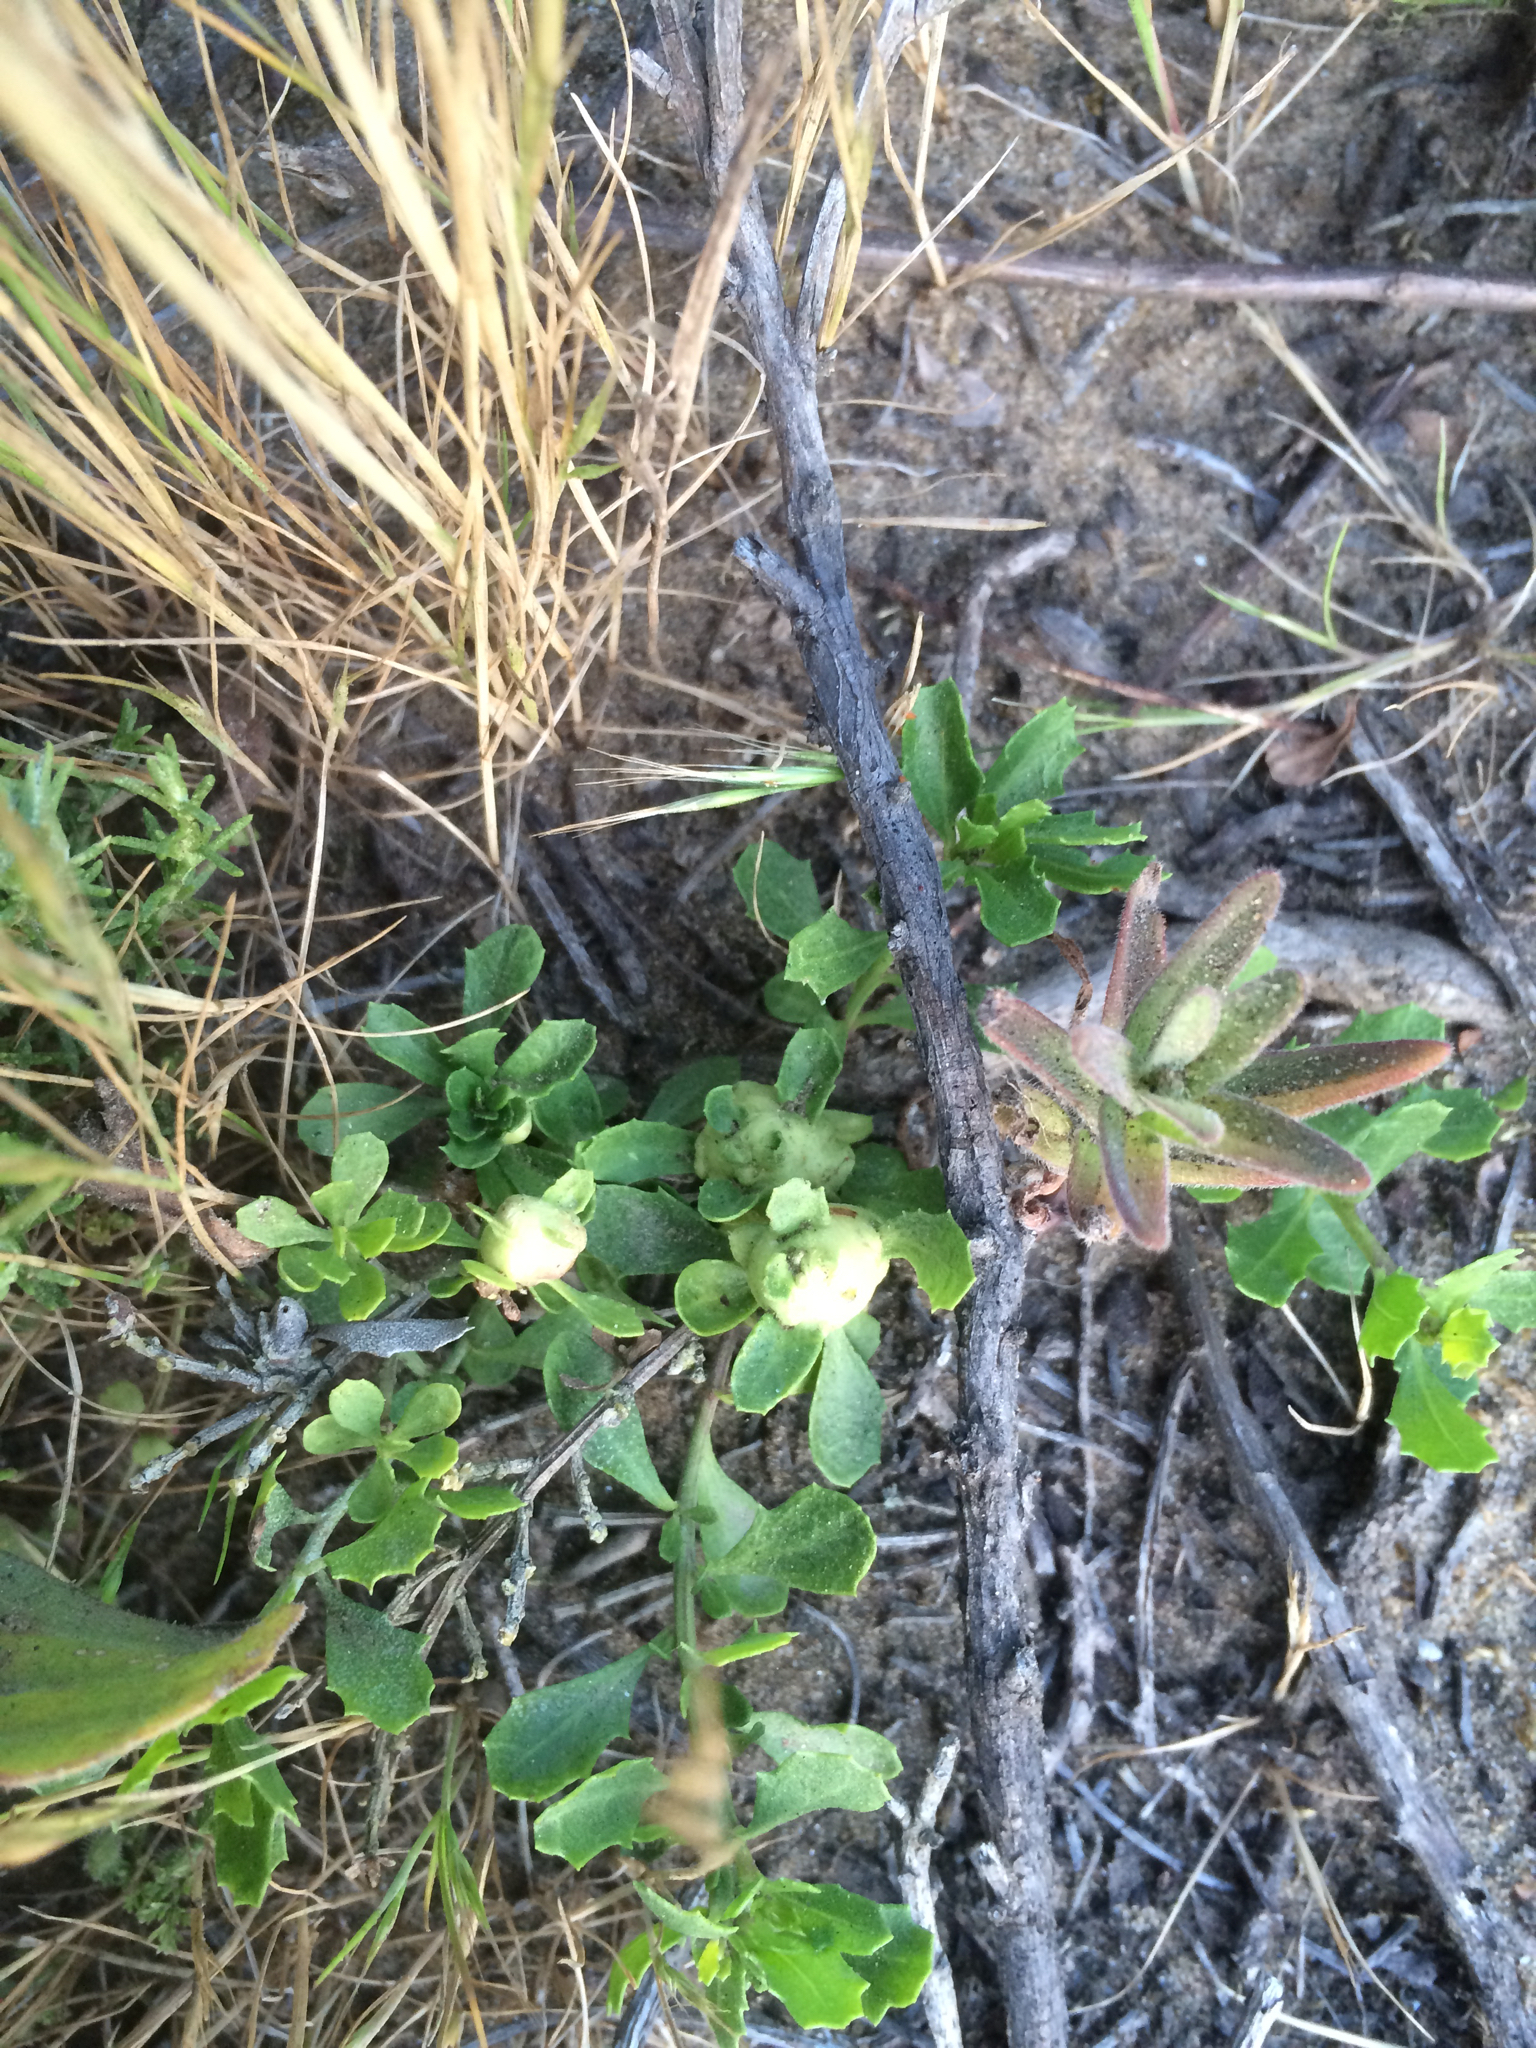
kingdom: Animalia
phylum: Arthropoda
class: Insecta
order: Diptera
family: Cecidomyiidae
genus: Rhopalomyia
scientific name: Rhopalomyia californica
